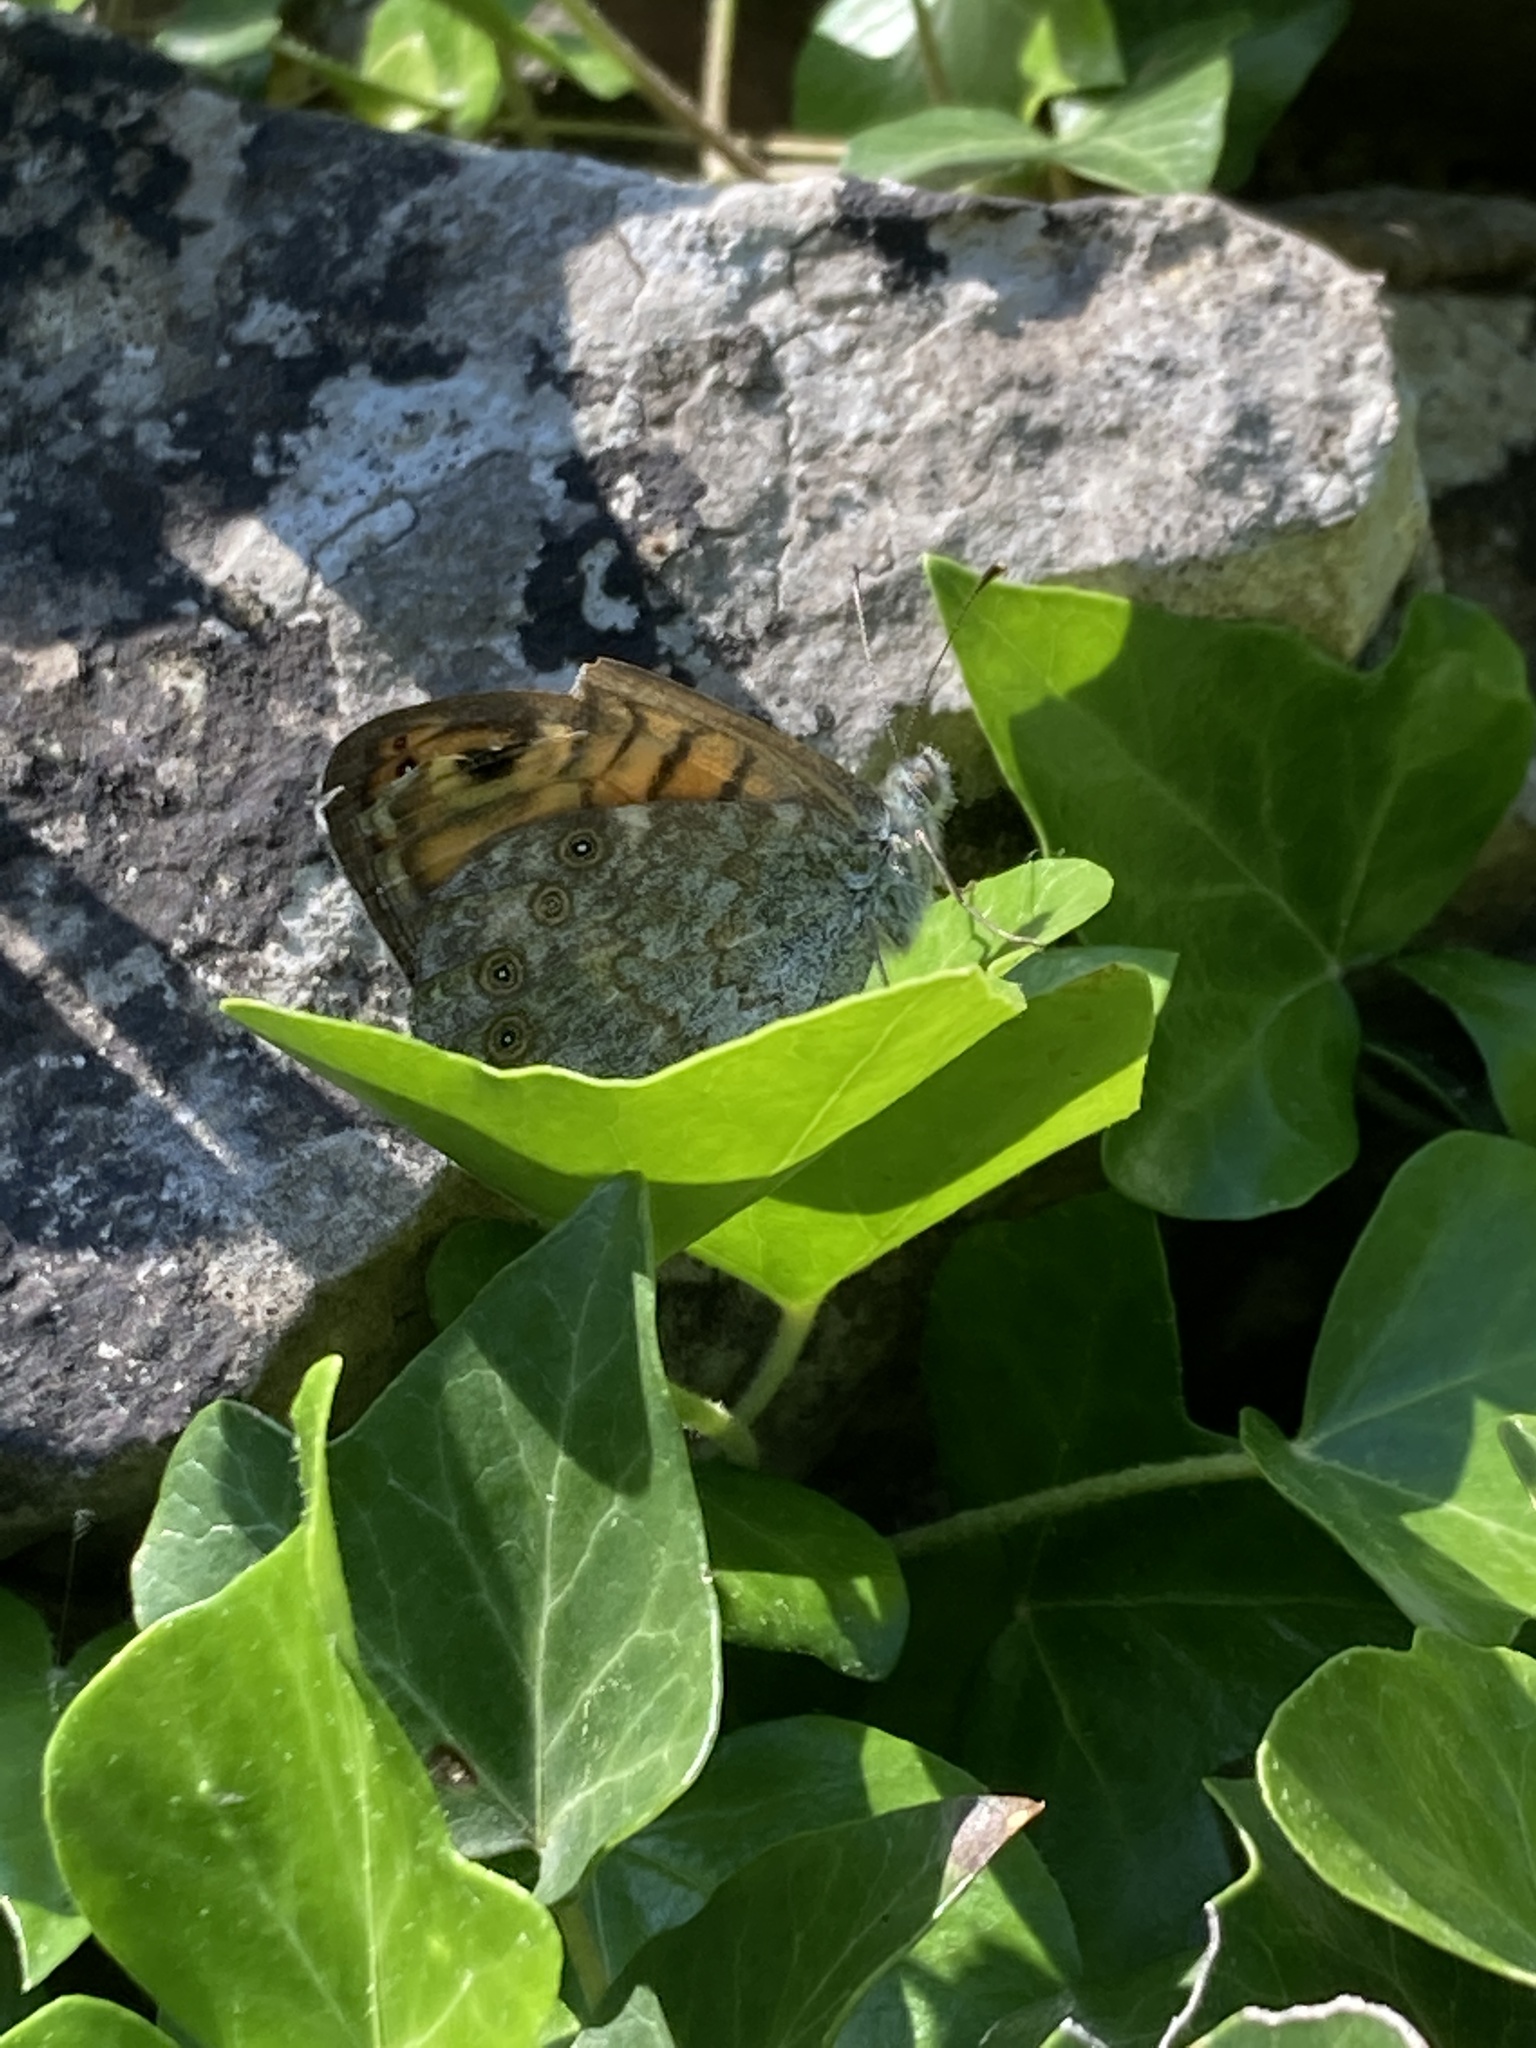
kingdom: Animalia
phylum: Arthropoda
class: Insecta
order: Lepidoptera
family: Nymphalidae
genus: Pararge
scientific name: Pararge Lasiommata megera
